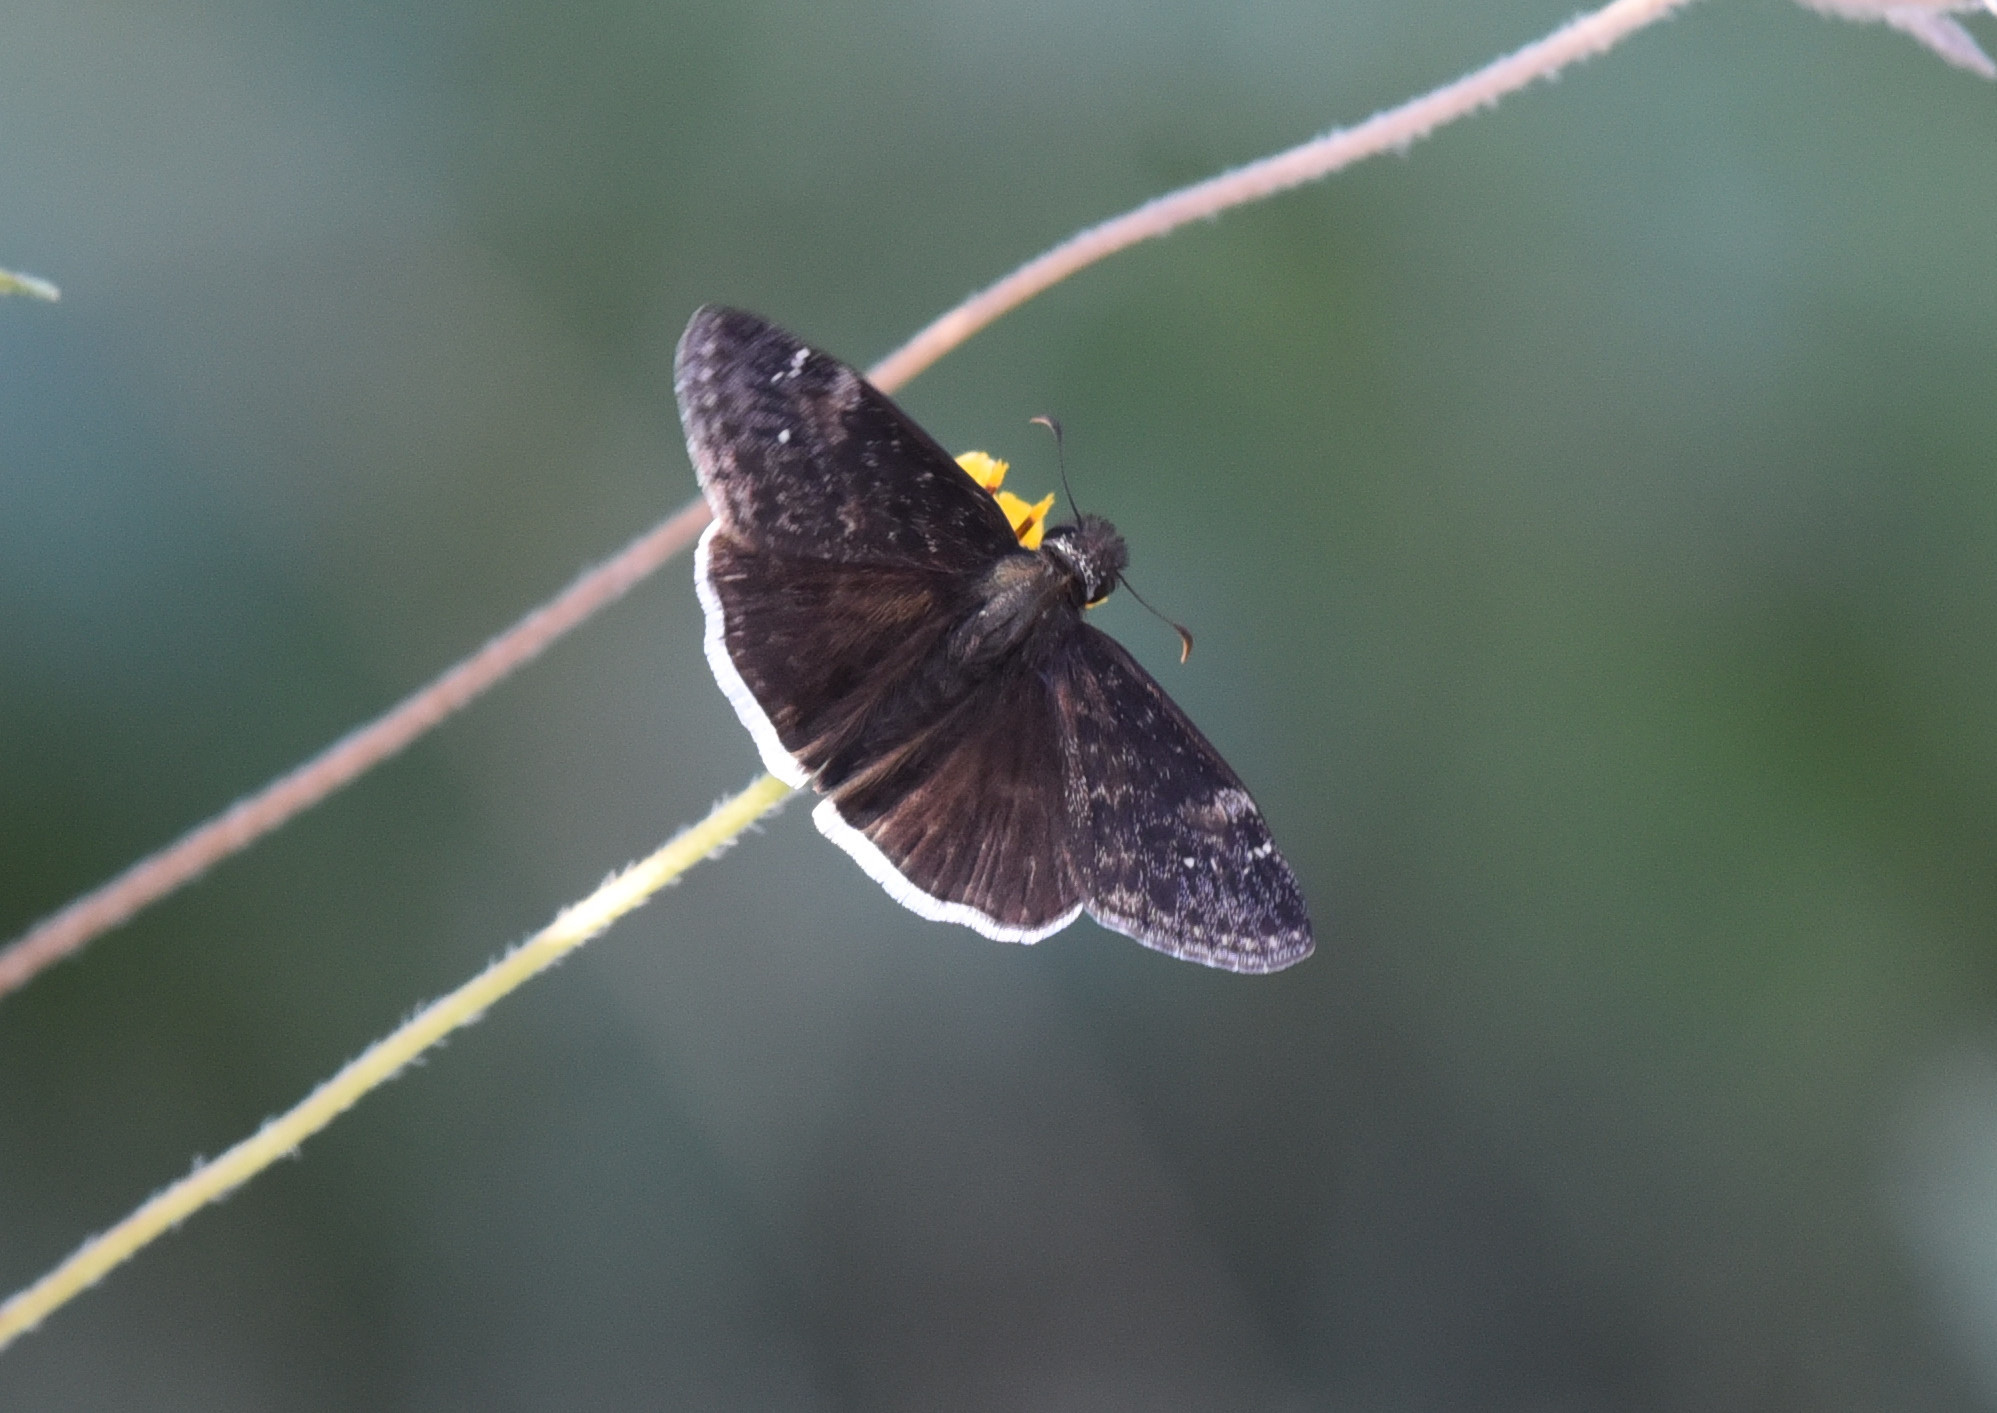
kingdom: Animalia
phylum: Arthropoda
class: Insecta
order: Lepidoptera
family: Hesperiidae
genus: Erynnis
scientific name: Erynnis funeralis
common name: Funereal duskywing
